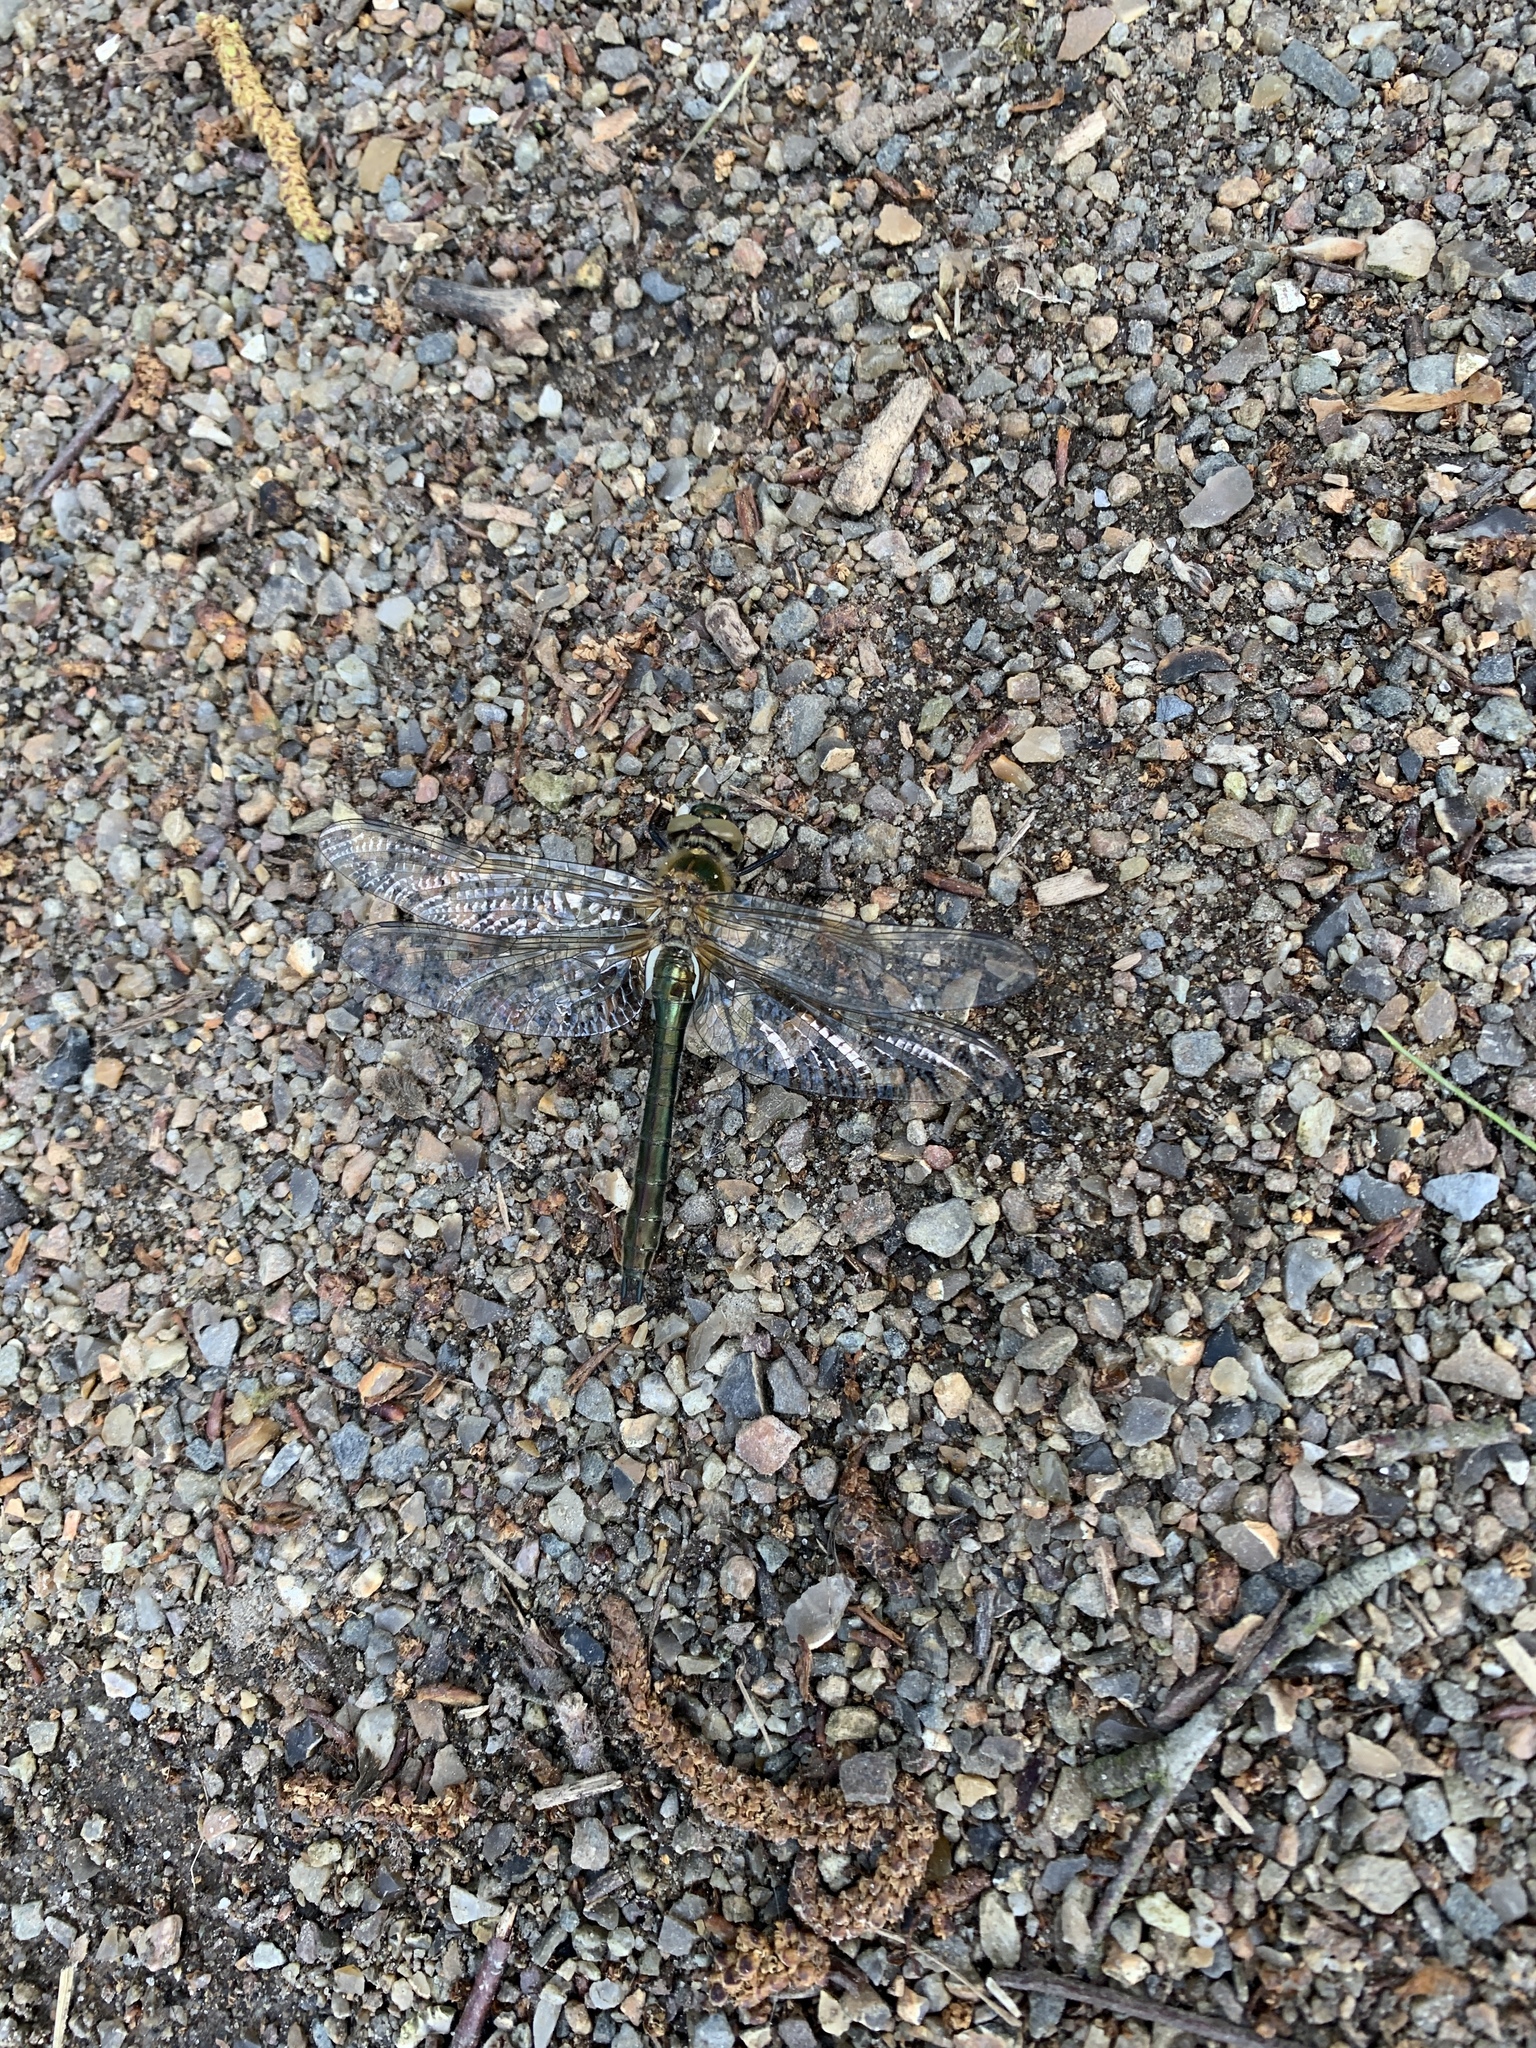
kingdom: Animalia
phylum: Arthropoda
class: Insecta
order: Odonata
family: Corduliidae
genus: Cordulia
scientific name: Cordulia aenea
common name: Downy emerald
